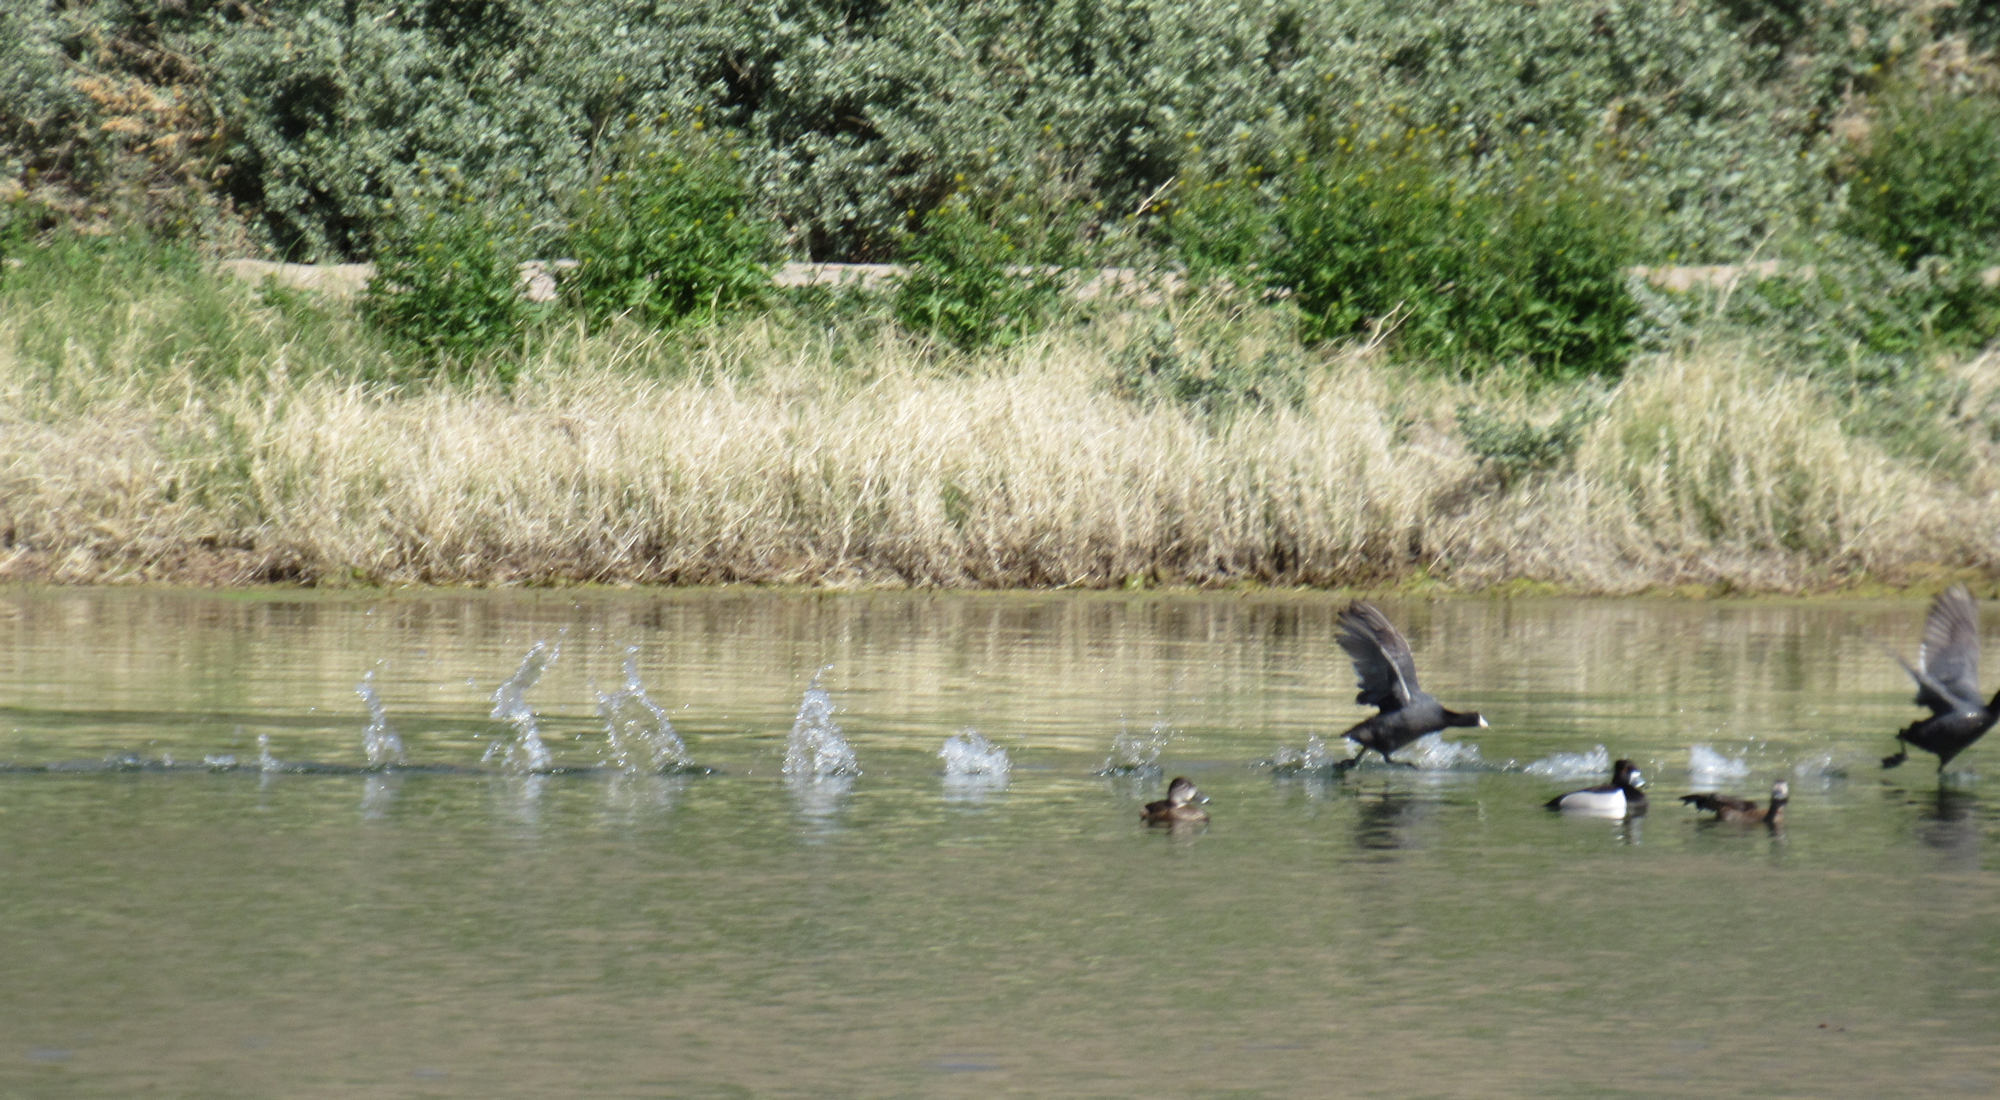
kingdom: Animalia
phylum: Chordata
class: Aves
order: Gruiformes
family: Rallidae
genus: Fulica
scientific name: Fulica americana
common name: American coot
